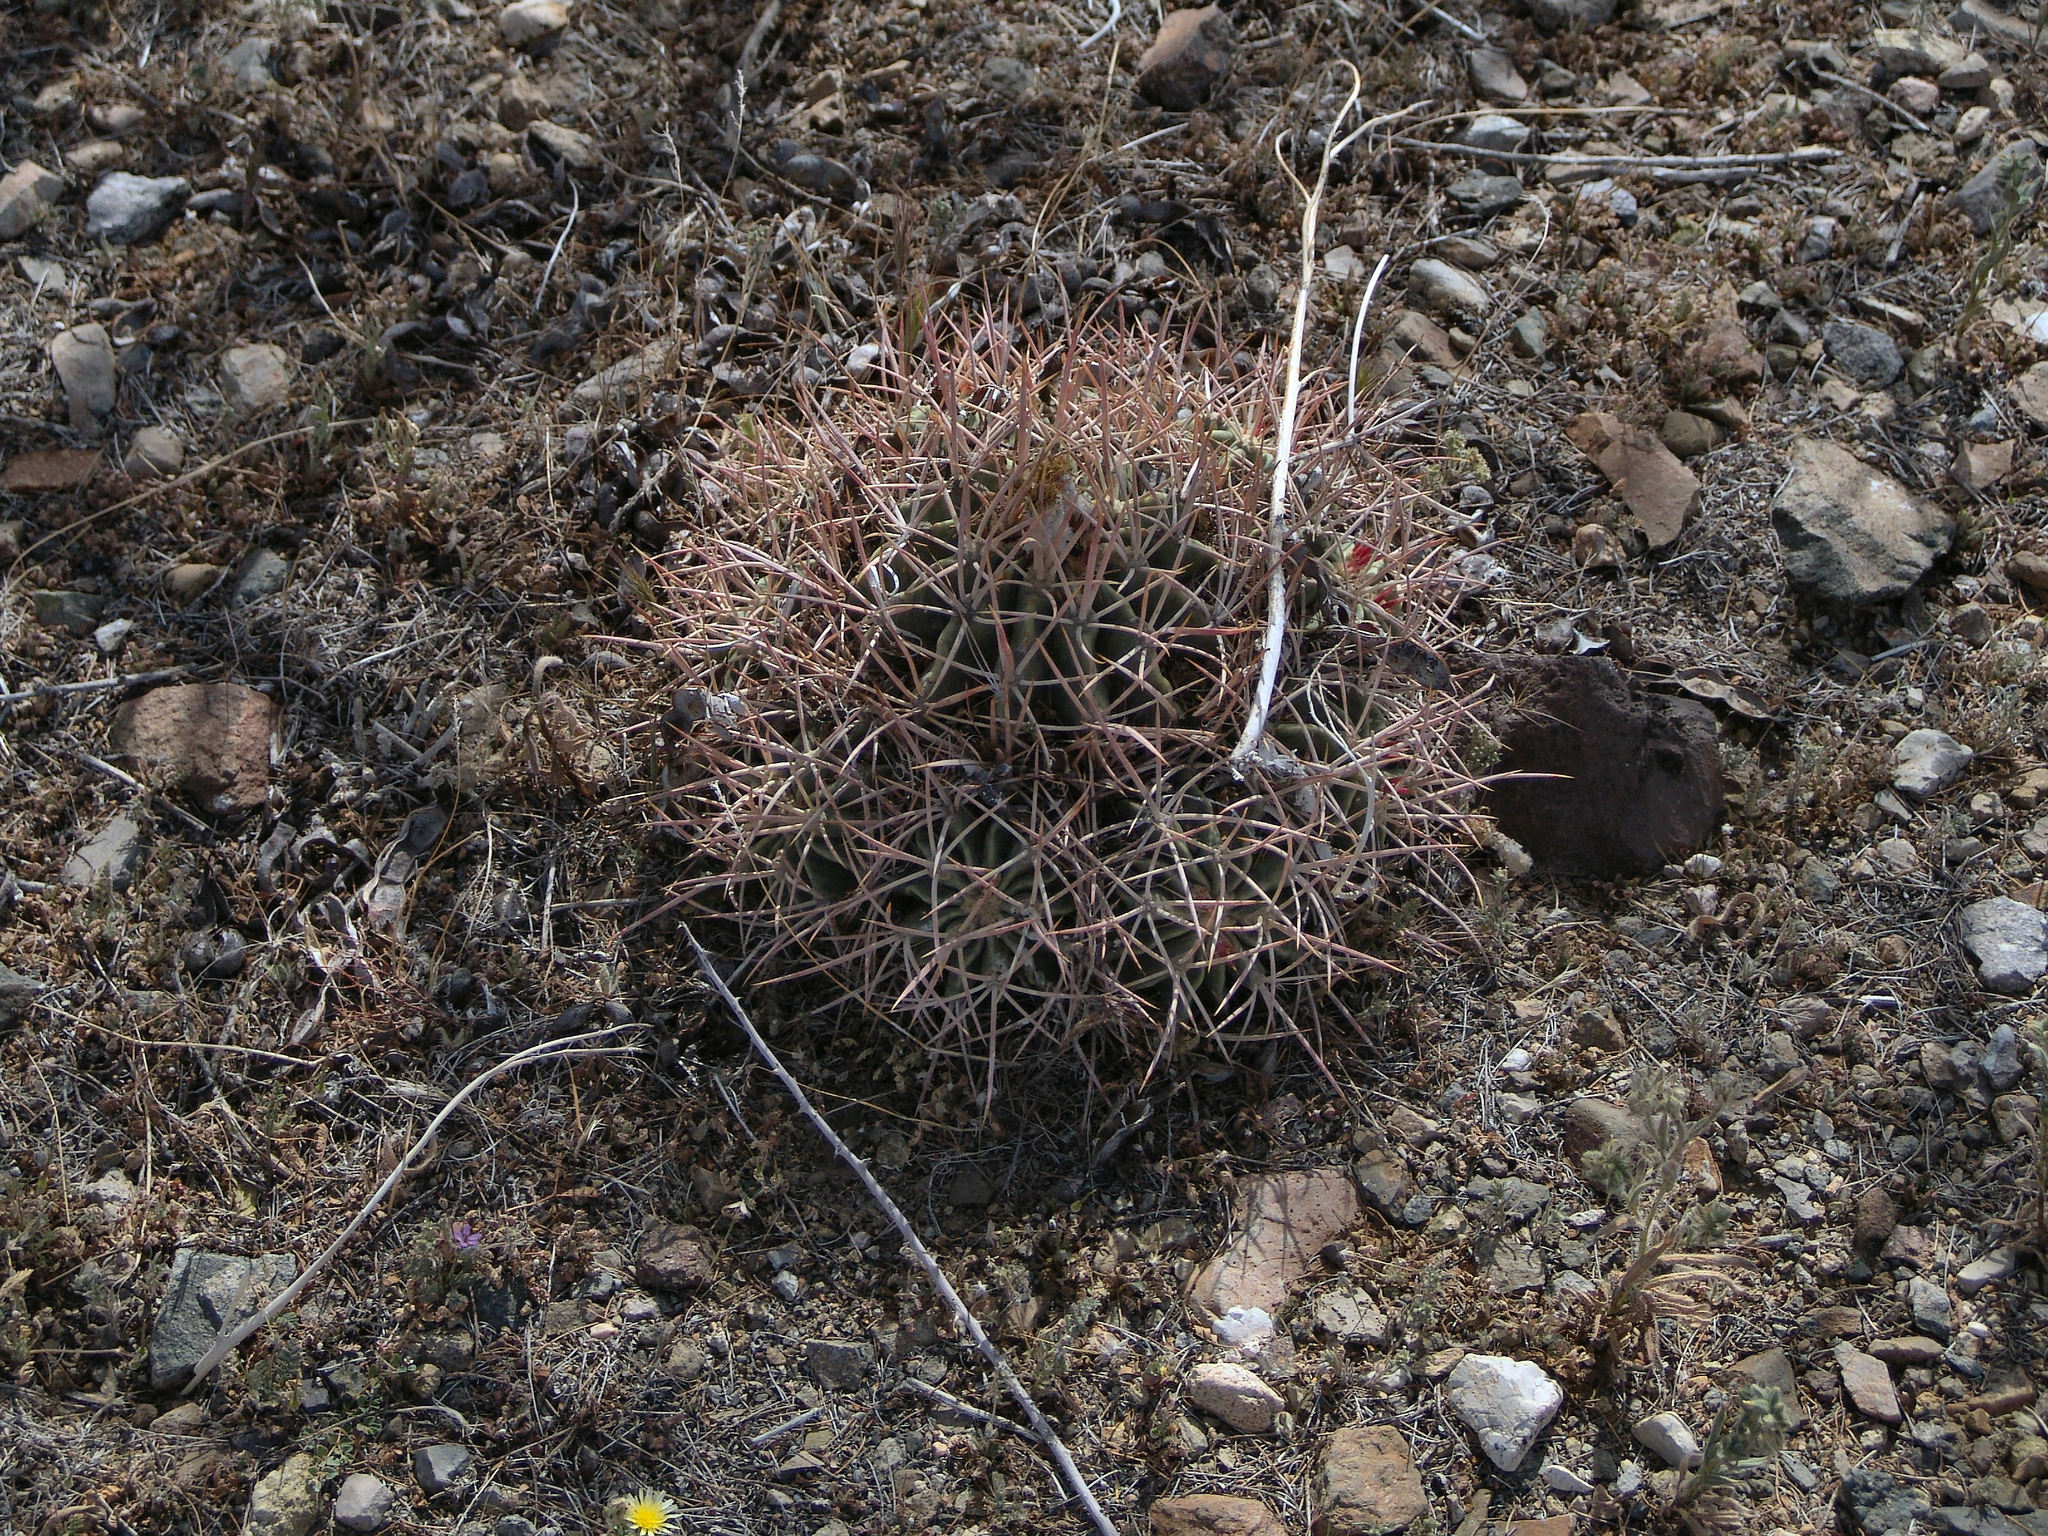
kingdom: Plantae
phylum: Tracheophyta
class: Magnoliopsida
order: Caryophyllales
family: Cactaceae
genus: Echinocactus
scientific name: Echinocactus polycephalus
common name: Cottontop cactus
